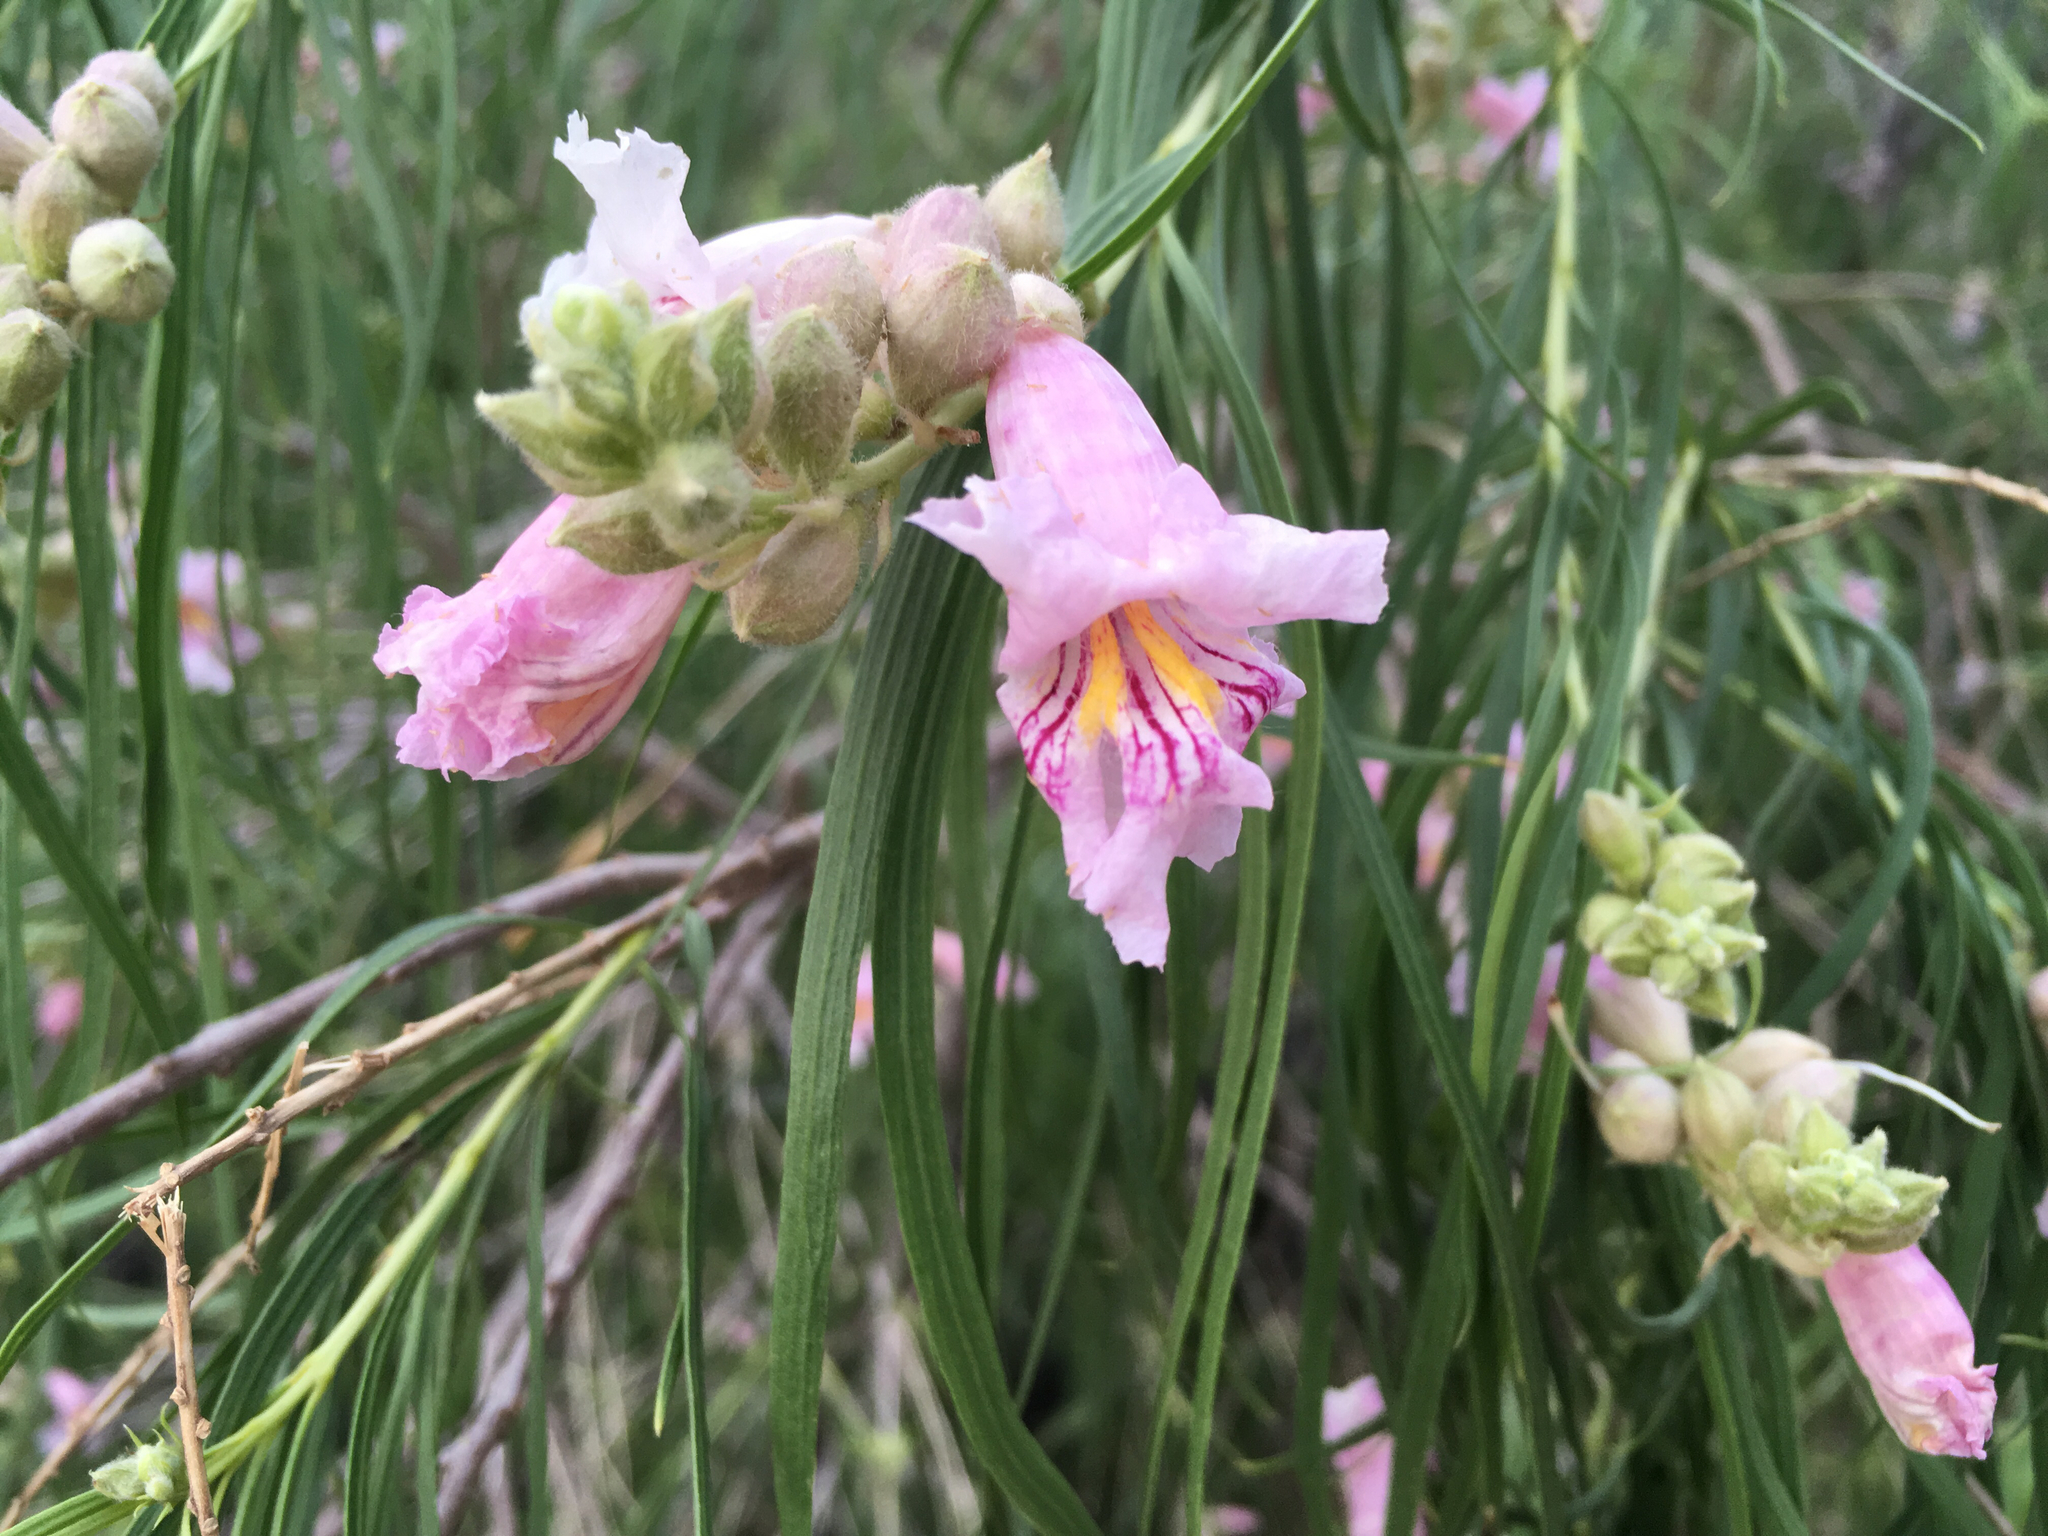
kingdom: Plantae
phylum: Tracheophyta
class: Magnoliopsida
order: Lamiales
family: Bignoniaceae
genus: Chilopsis
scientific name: Chilopsis linearis
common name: Desert-willow
